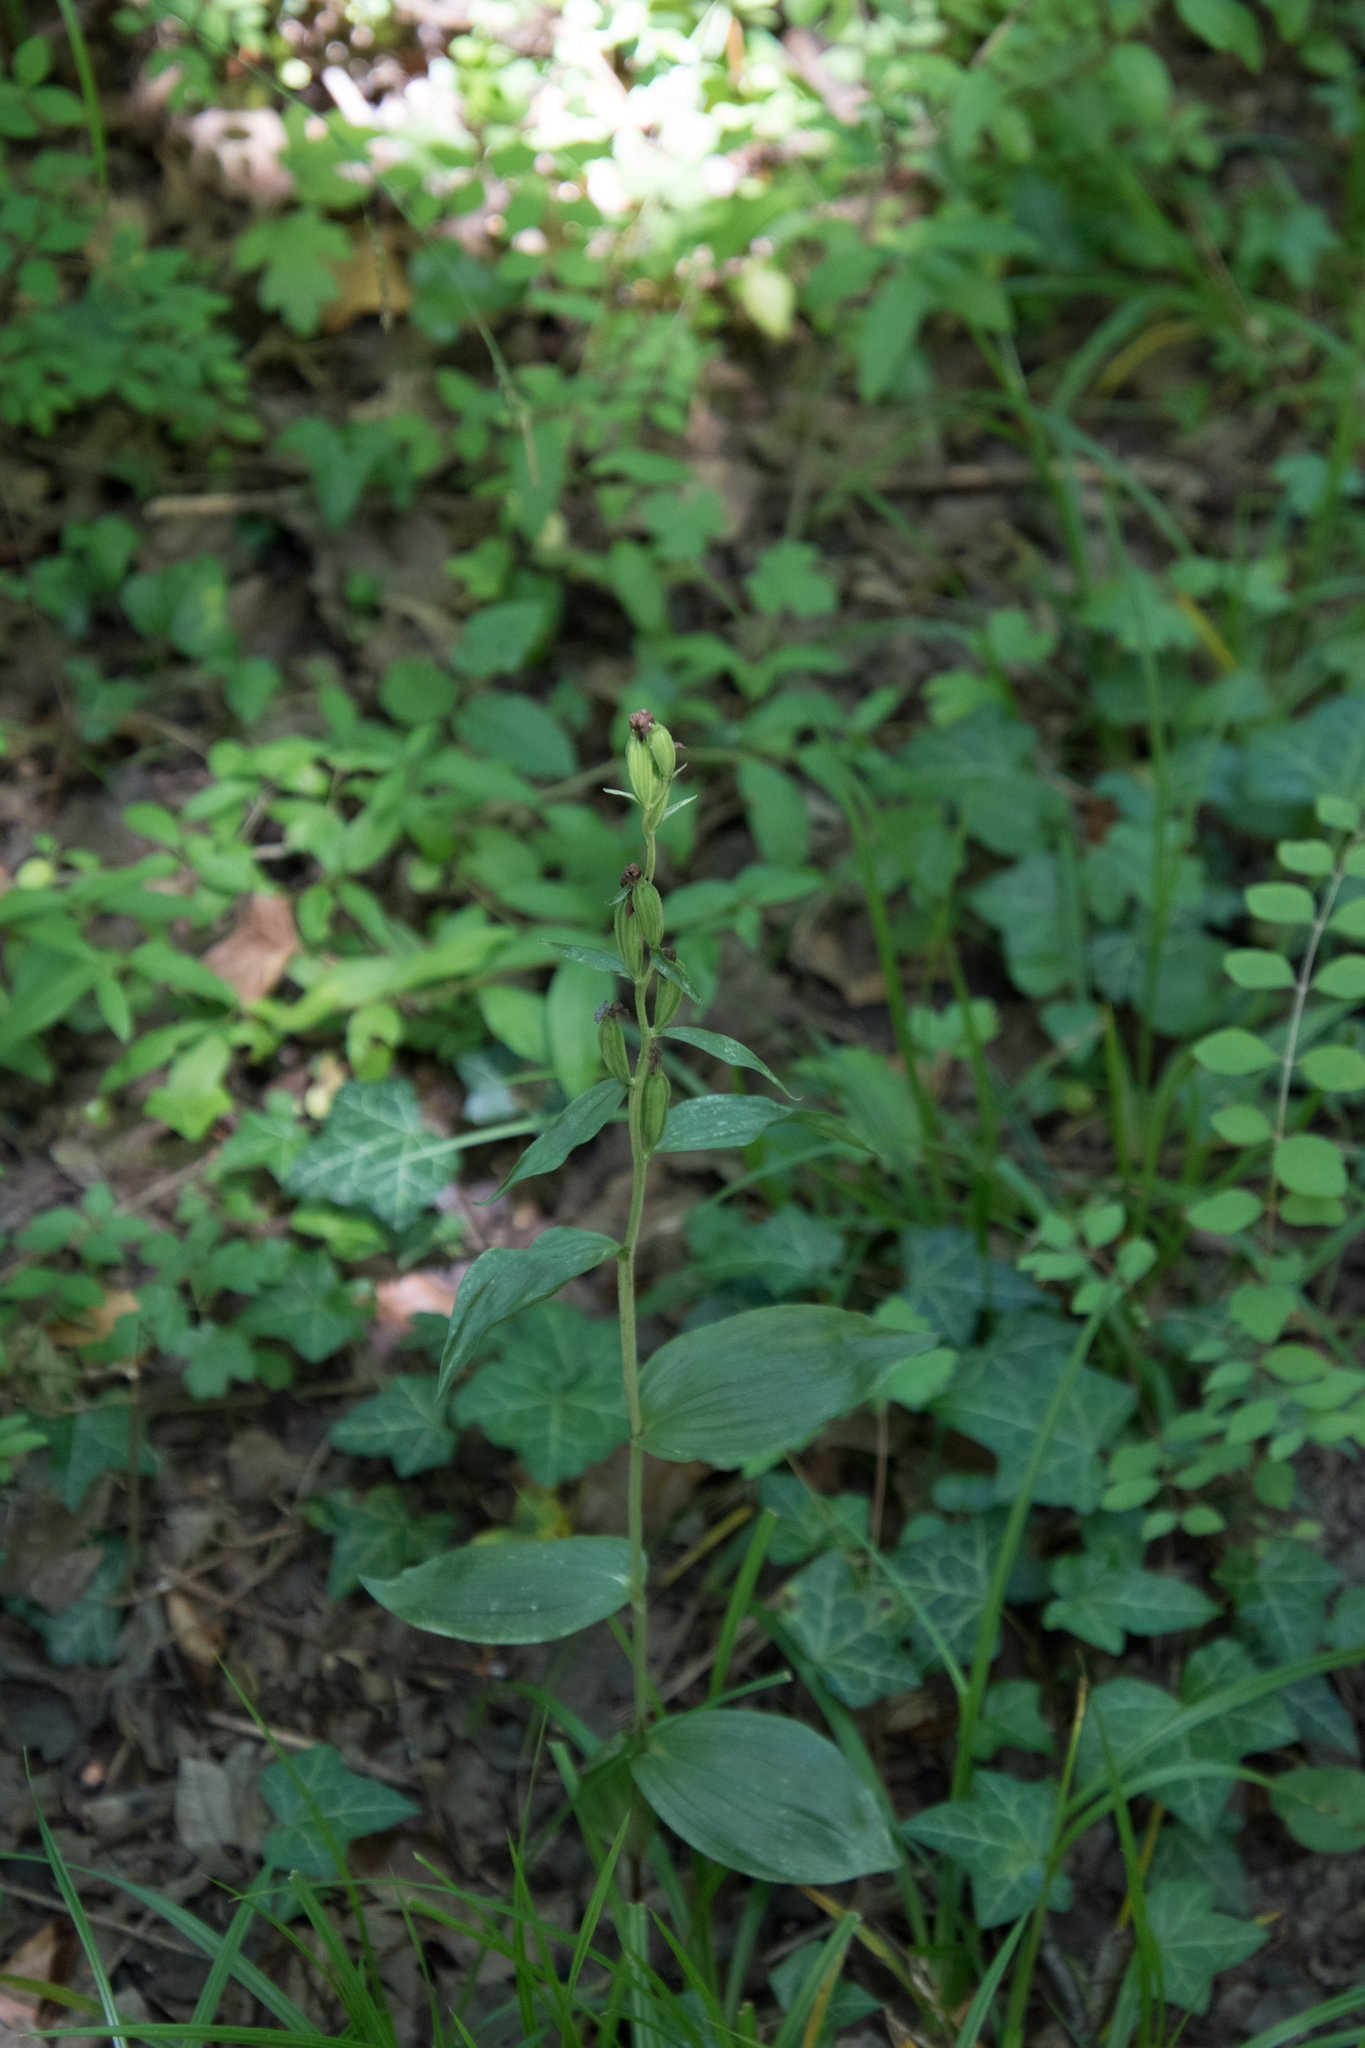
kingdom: Plantae
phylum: Tracheophyta
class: Liliopsida
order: Asparagales
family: Orchidaceae
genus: Cephalanthera
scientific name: Cephalanthera damasonium
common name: White helleborine
